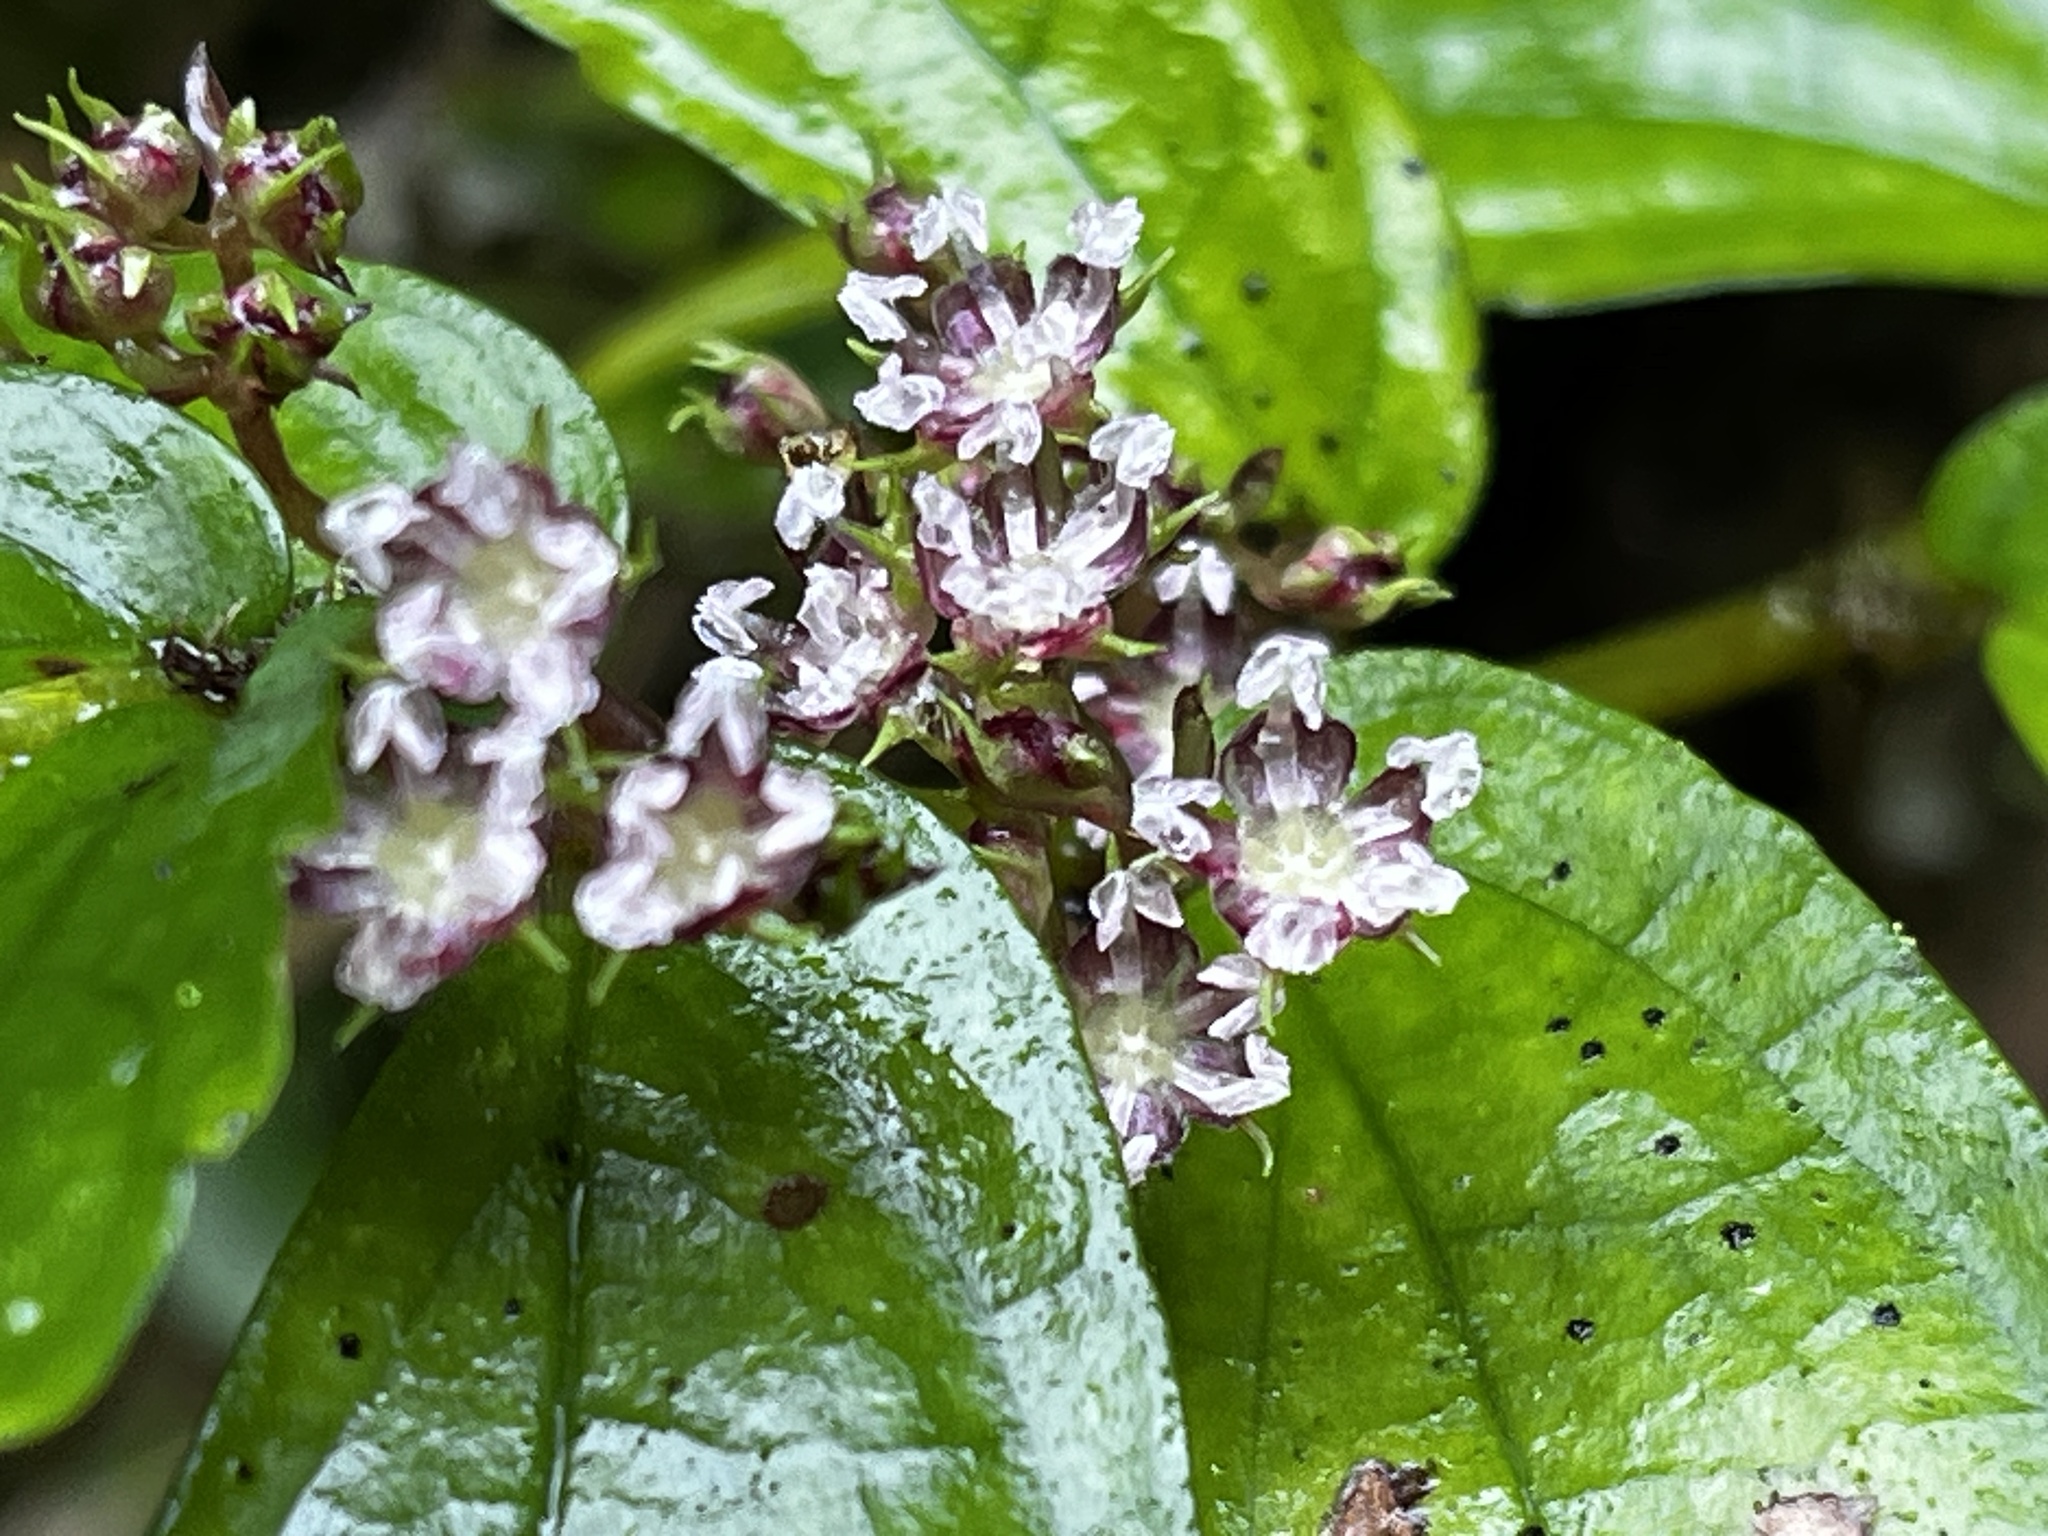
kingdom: Plantae
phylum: Tracheophyta
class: Magnoliopsida
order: Rosales
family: Urticaceae
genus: Elatostema
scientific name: Elatostema radicans
